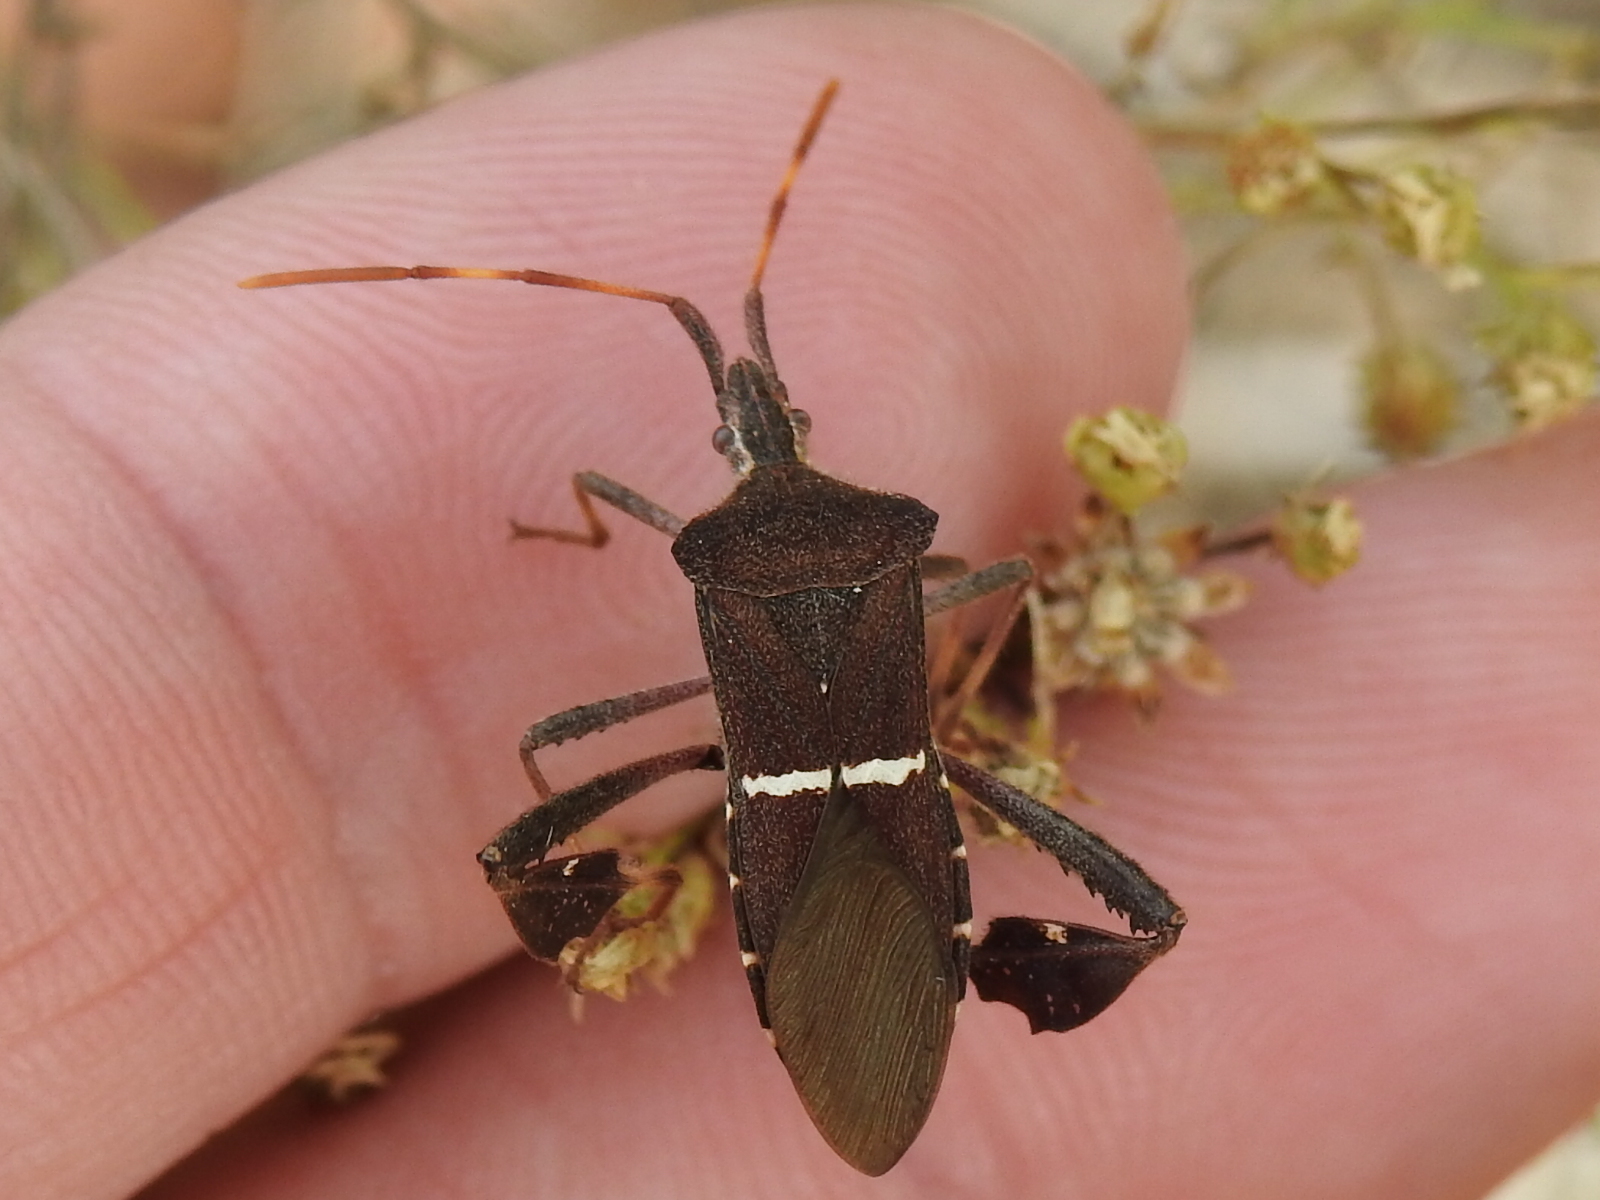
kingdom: Animalia
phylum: Arthropoda
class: Insecta
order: Hemiptera
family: Coreidae
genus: Leptoglossus
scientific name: Leptoglossus phyllopus
